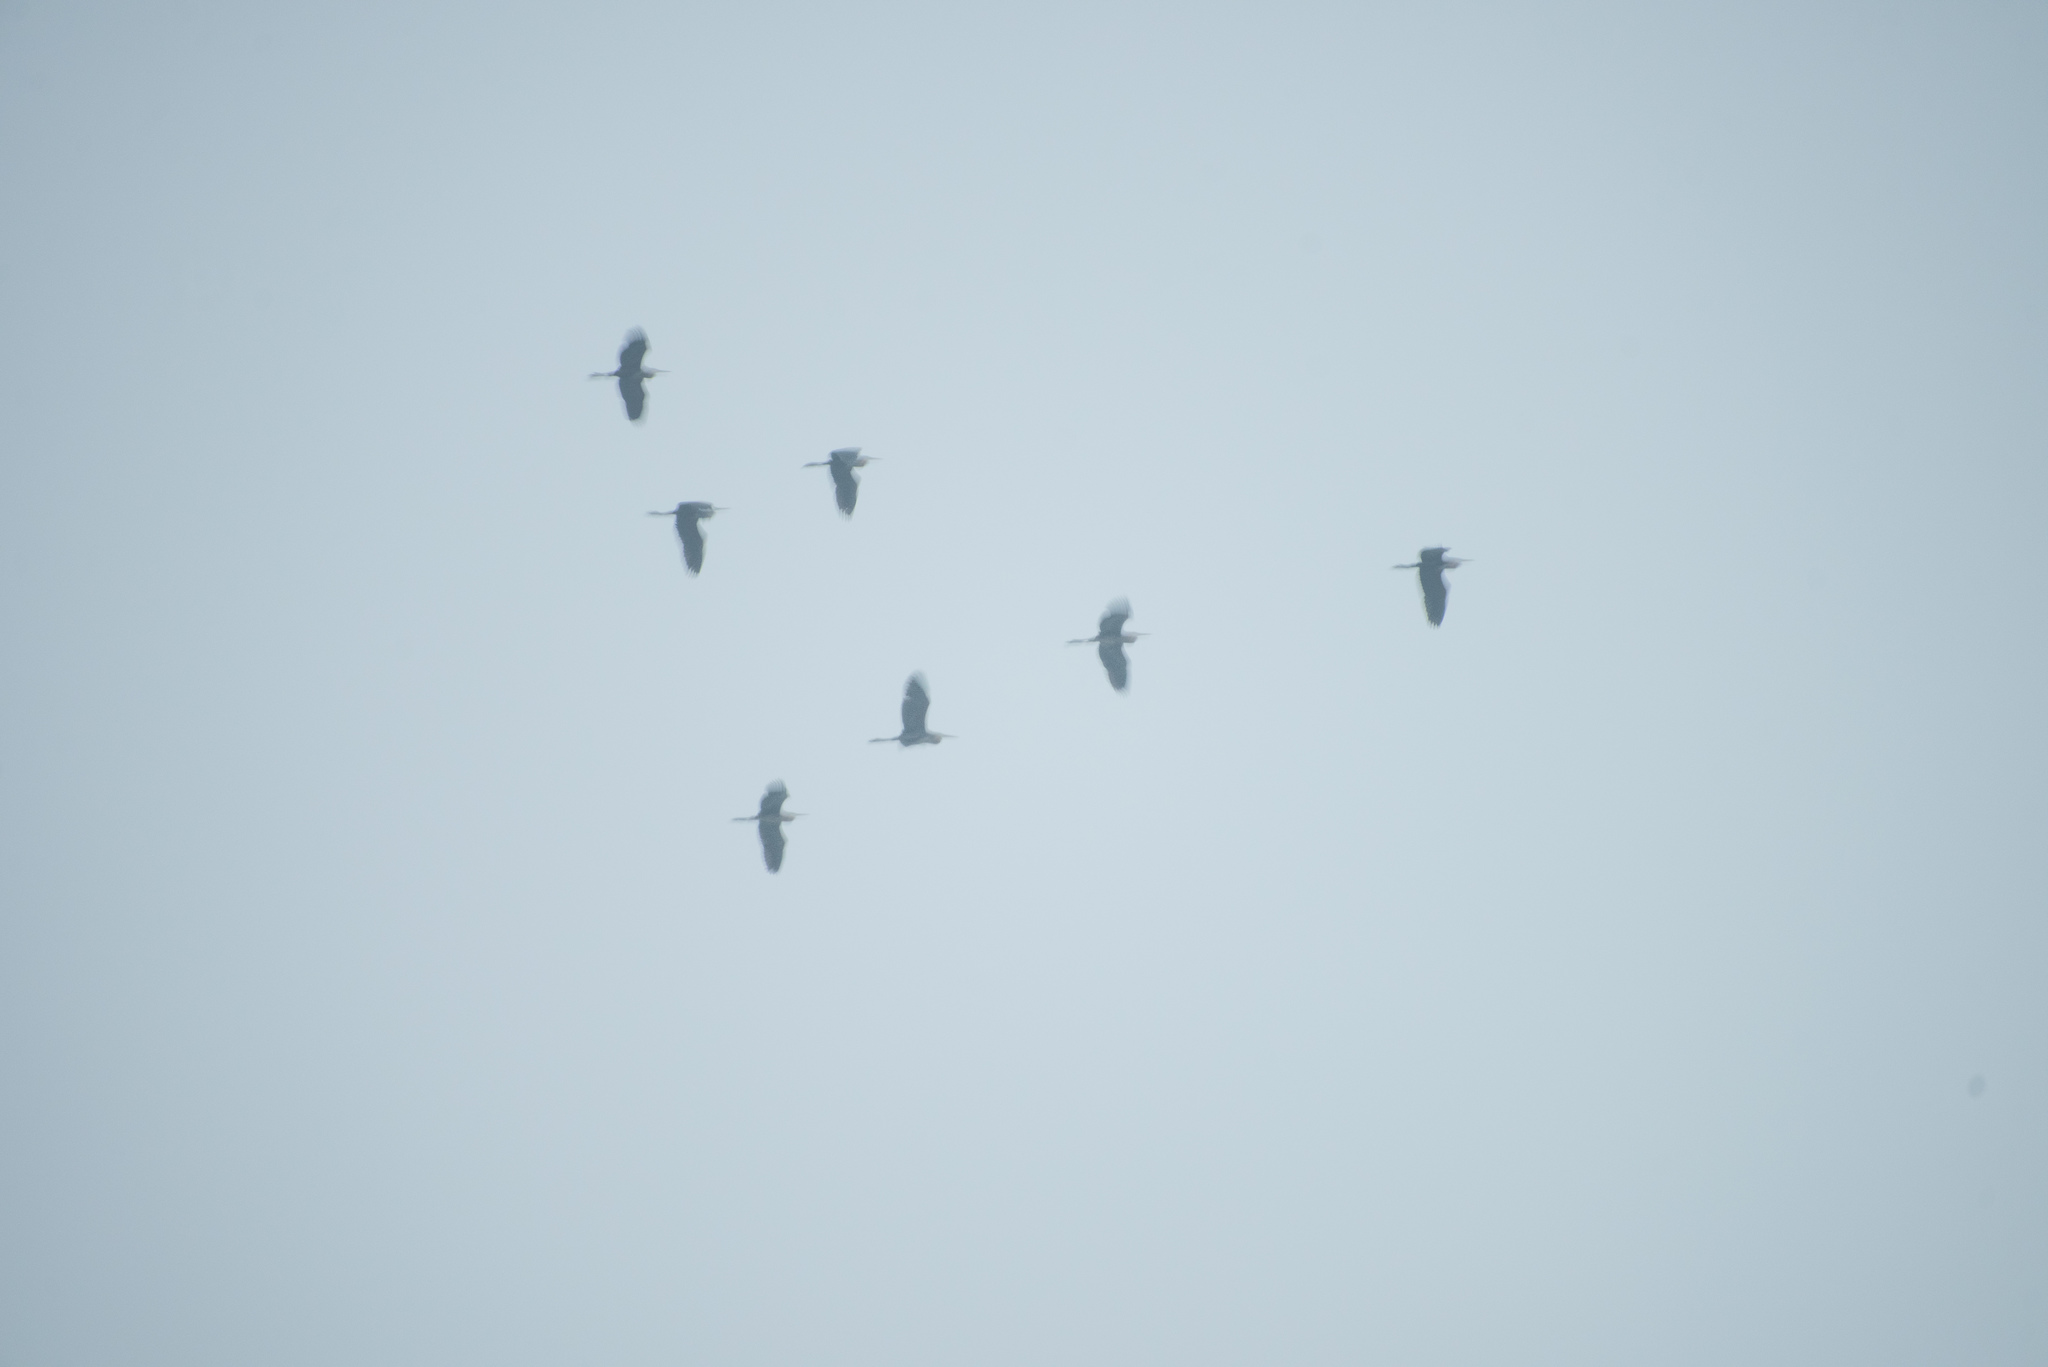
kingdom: Animalia
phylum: Chordata
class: Aves
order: Pelecaniformes
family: Ardeidae
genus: Ardea
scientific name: Ardea cinerea
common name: Grey heron
